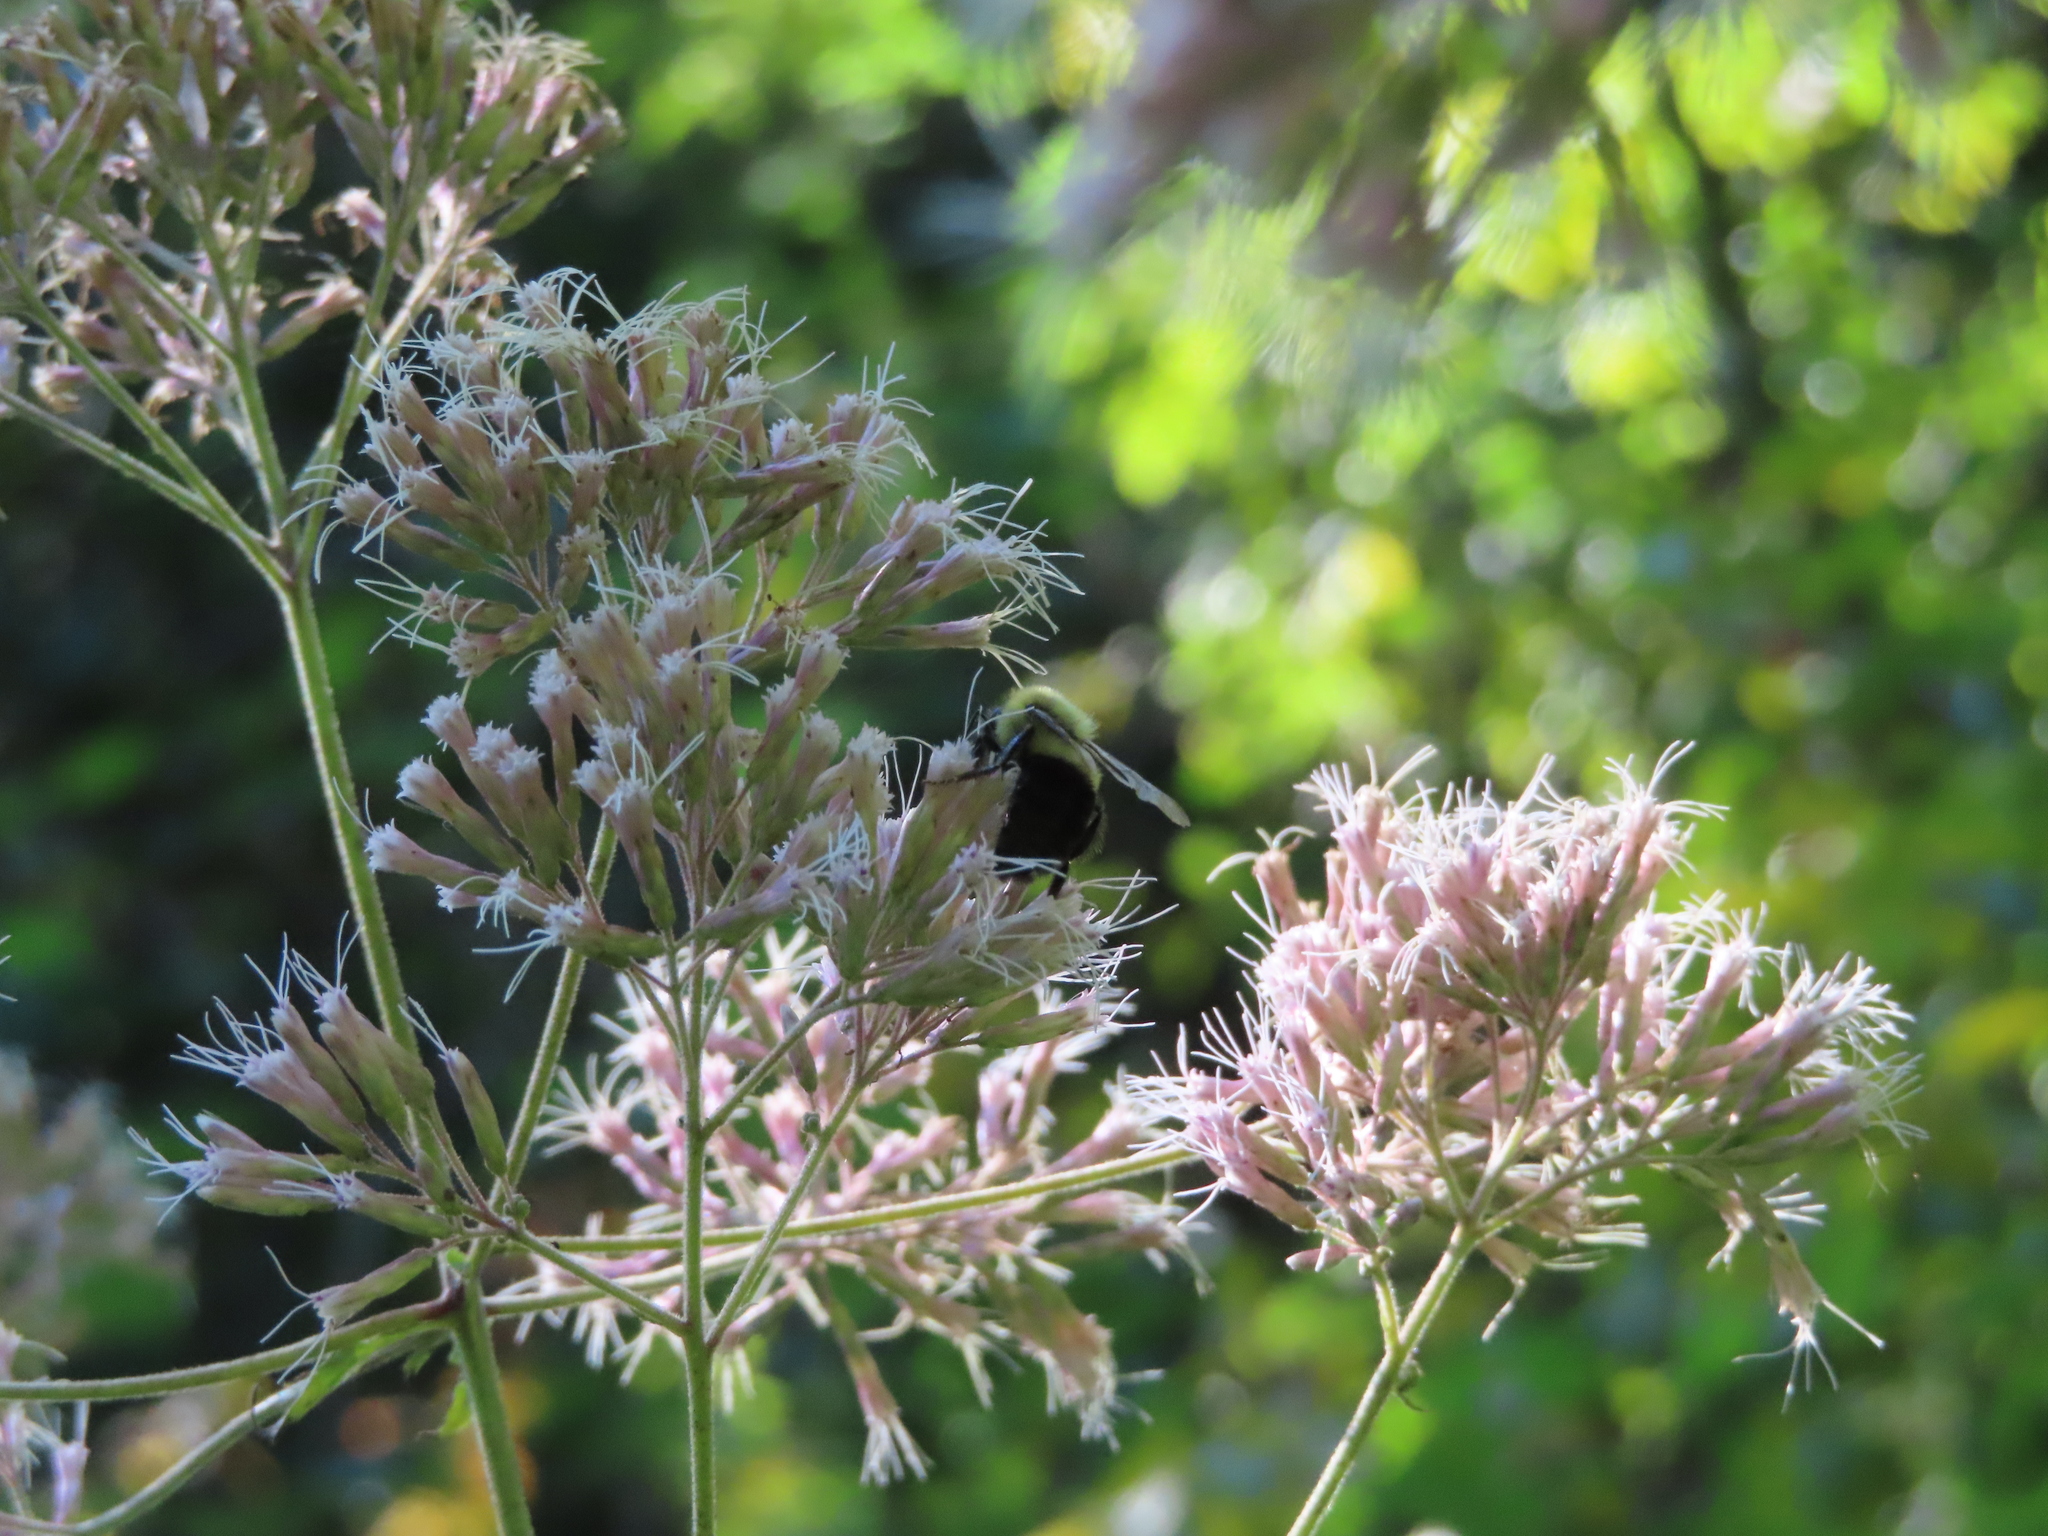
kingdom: Animalia
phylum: Arthropoda
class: Insecta
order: Hymenoptera
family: Apidae
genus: Bombus
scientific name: Bombus impatiens
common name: Common eastern bumble bee
